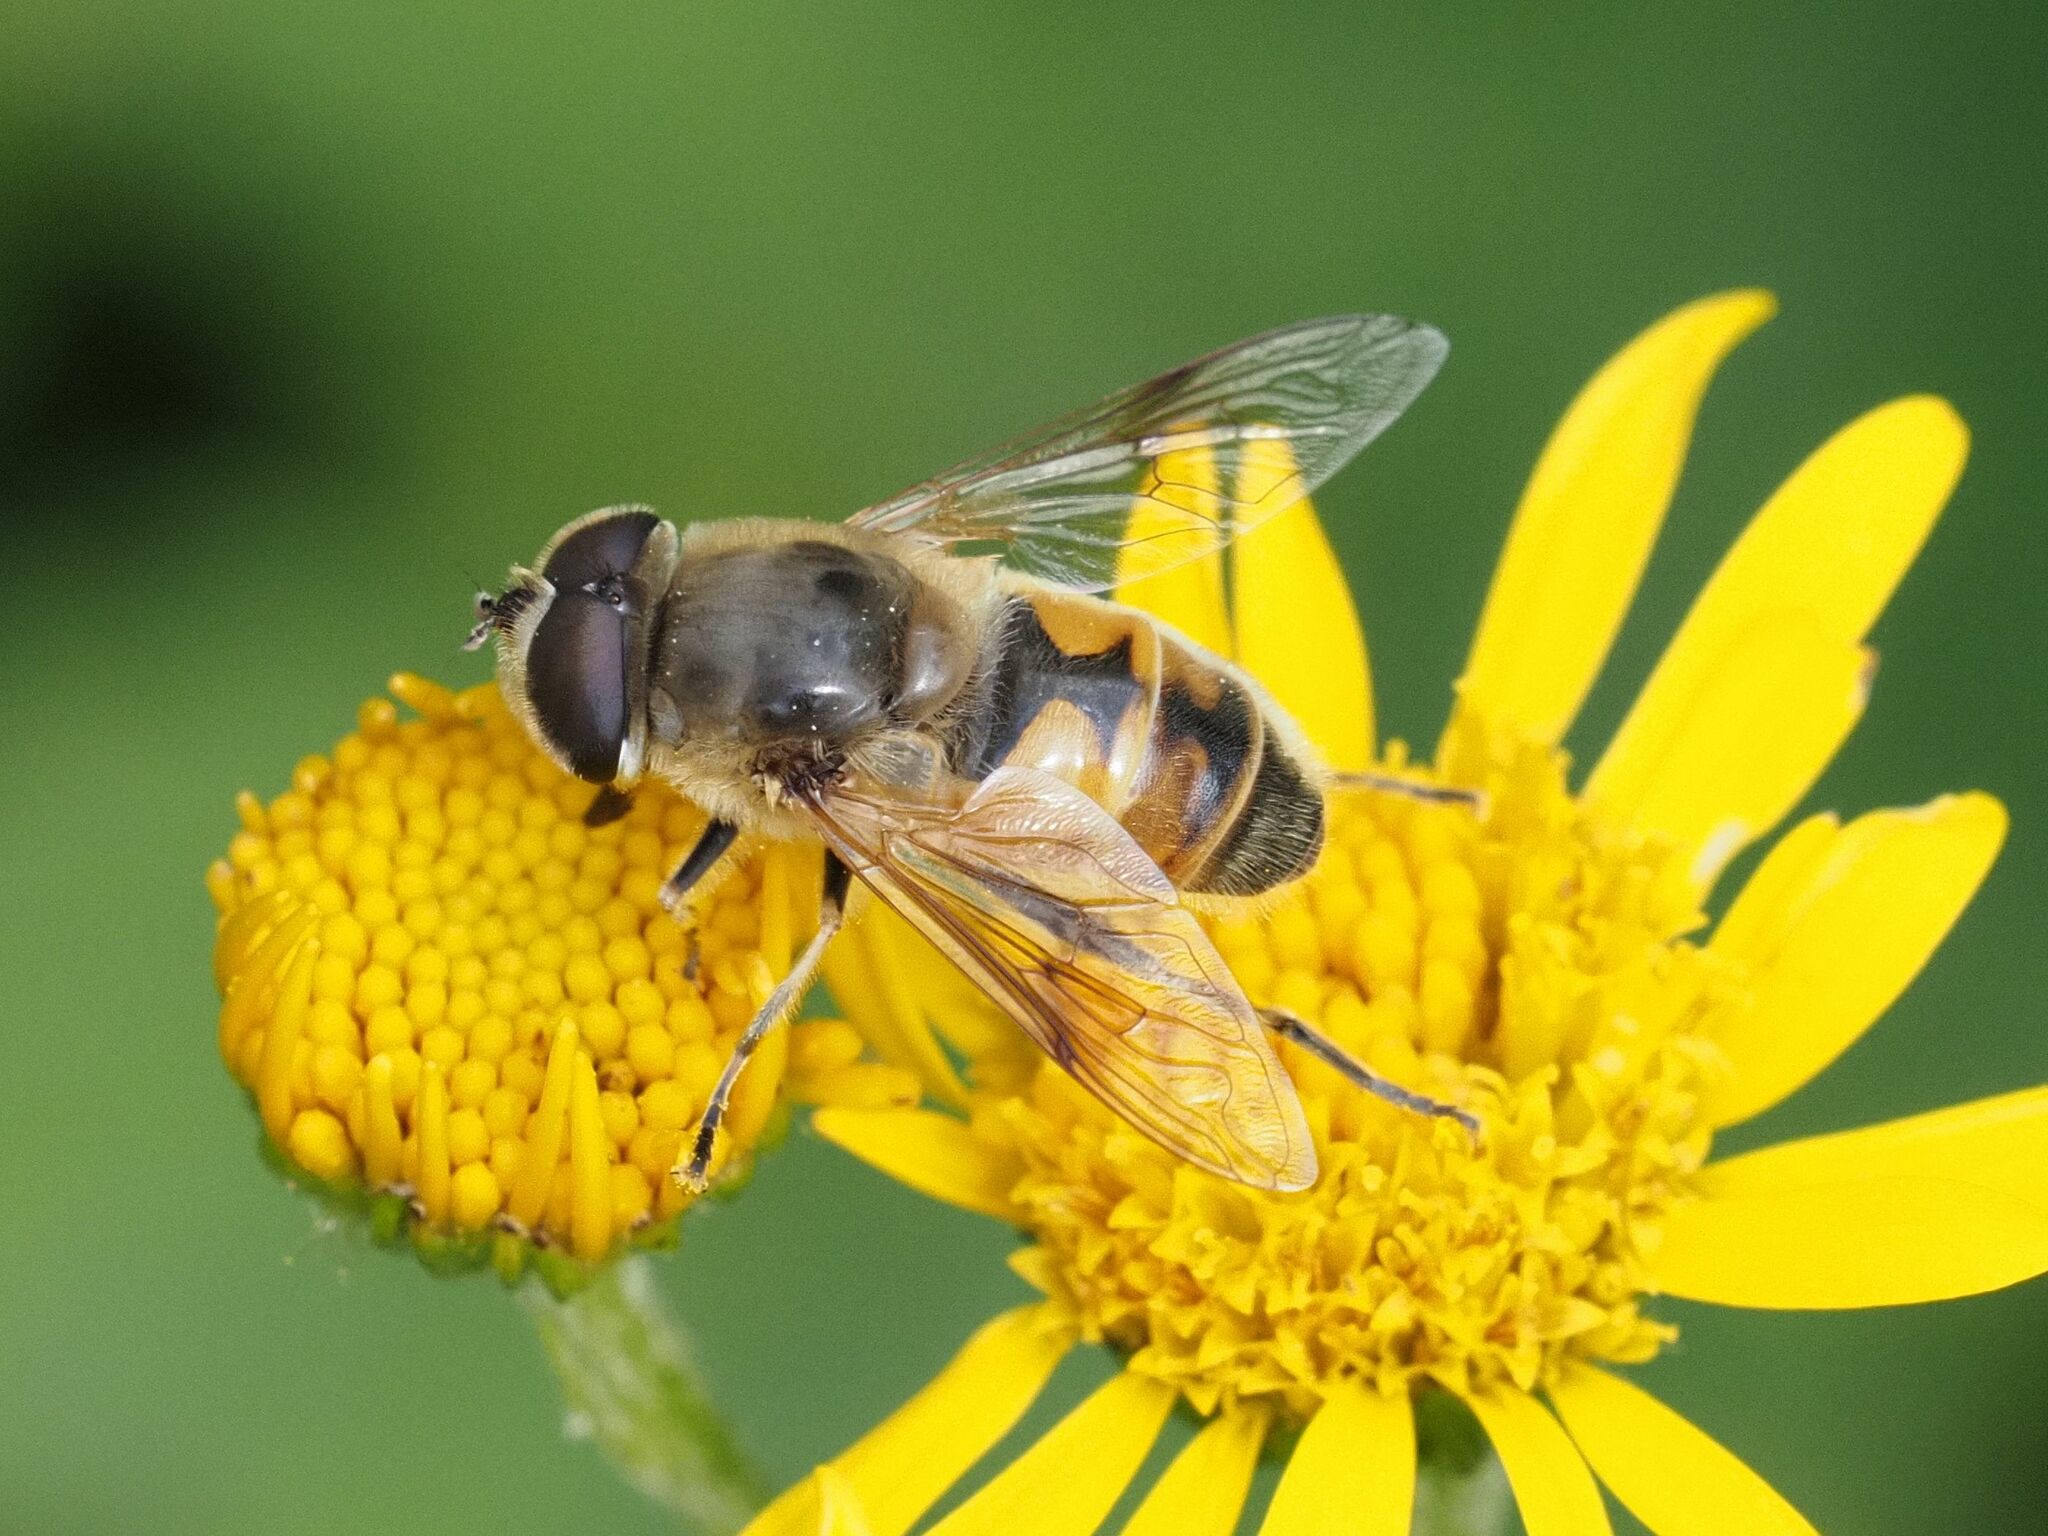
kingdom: Animalia
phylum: Arthropoda
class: Insecta
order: Diptera
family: Syrphidae
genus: Eristalis
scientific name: Eristalis tenax
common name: Drone fly
